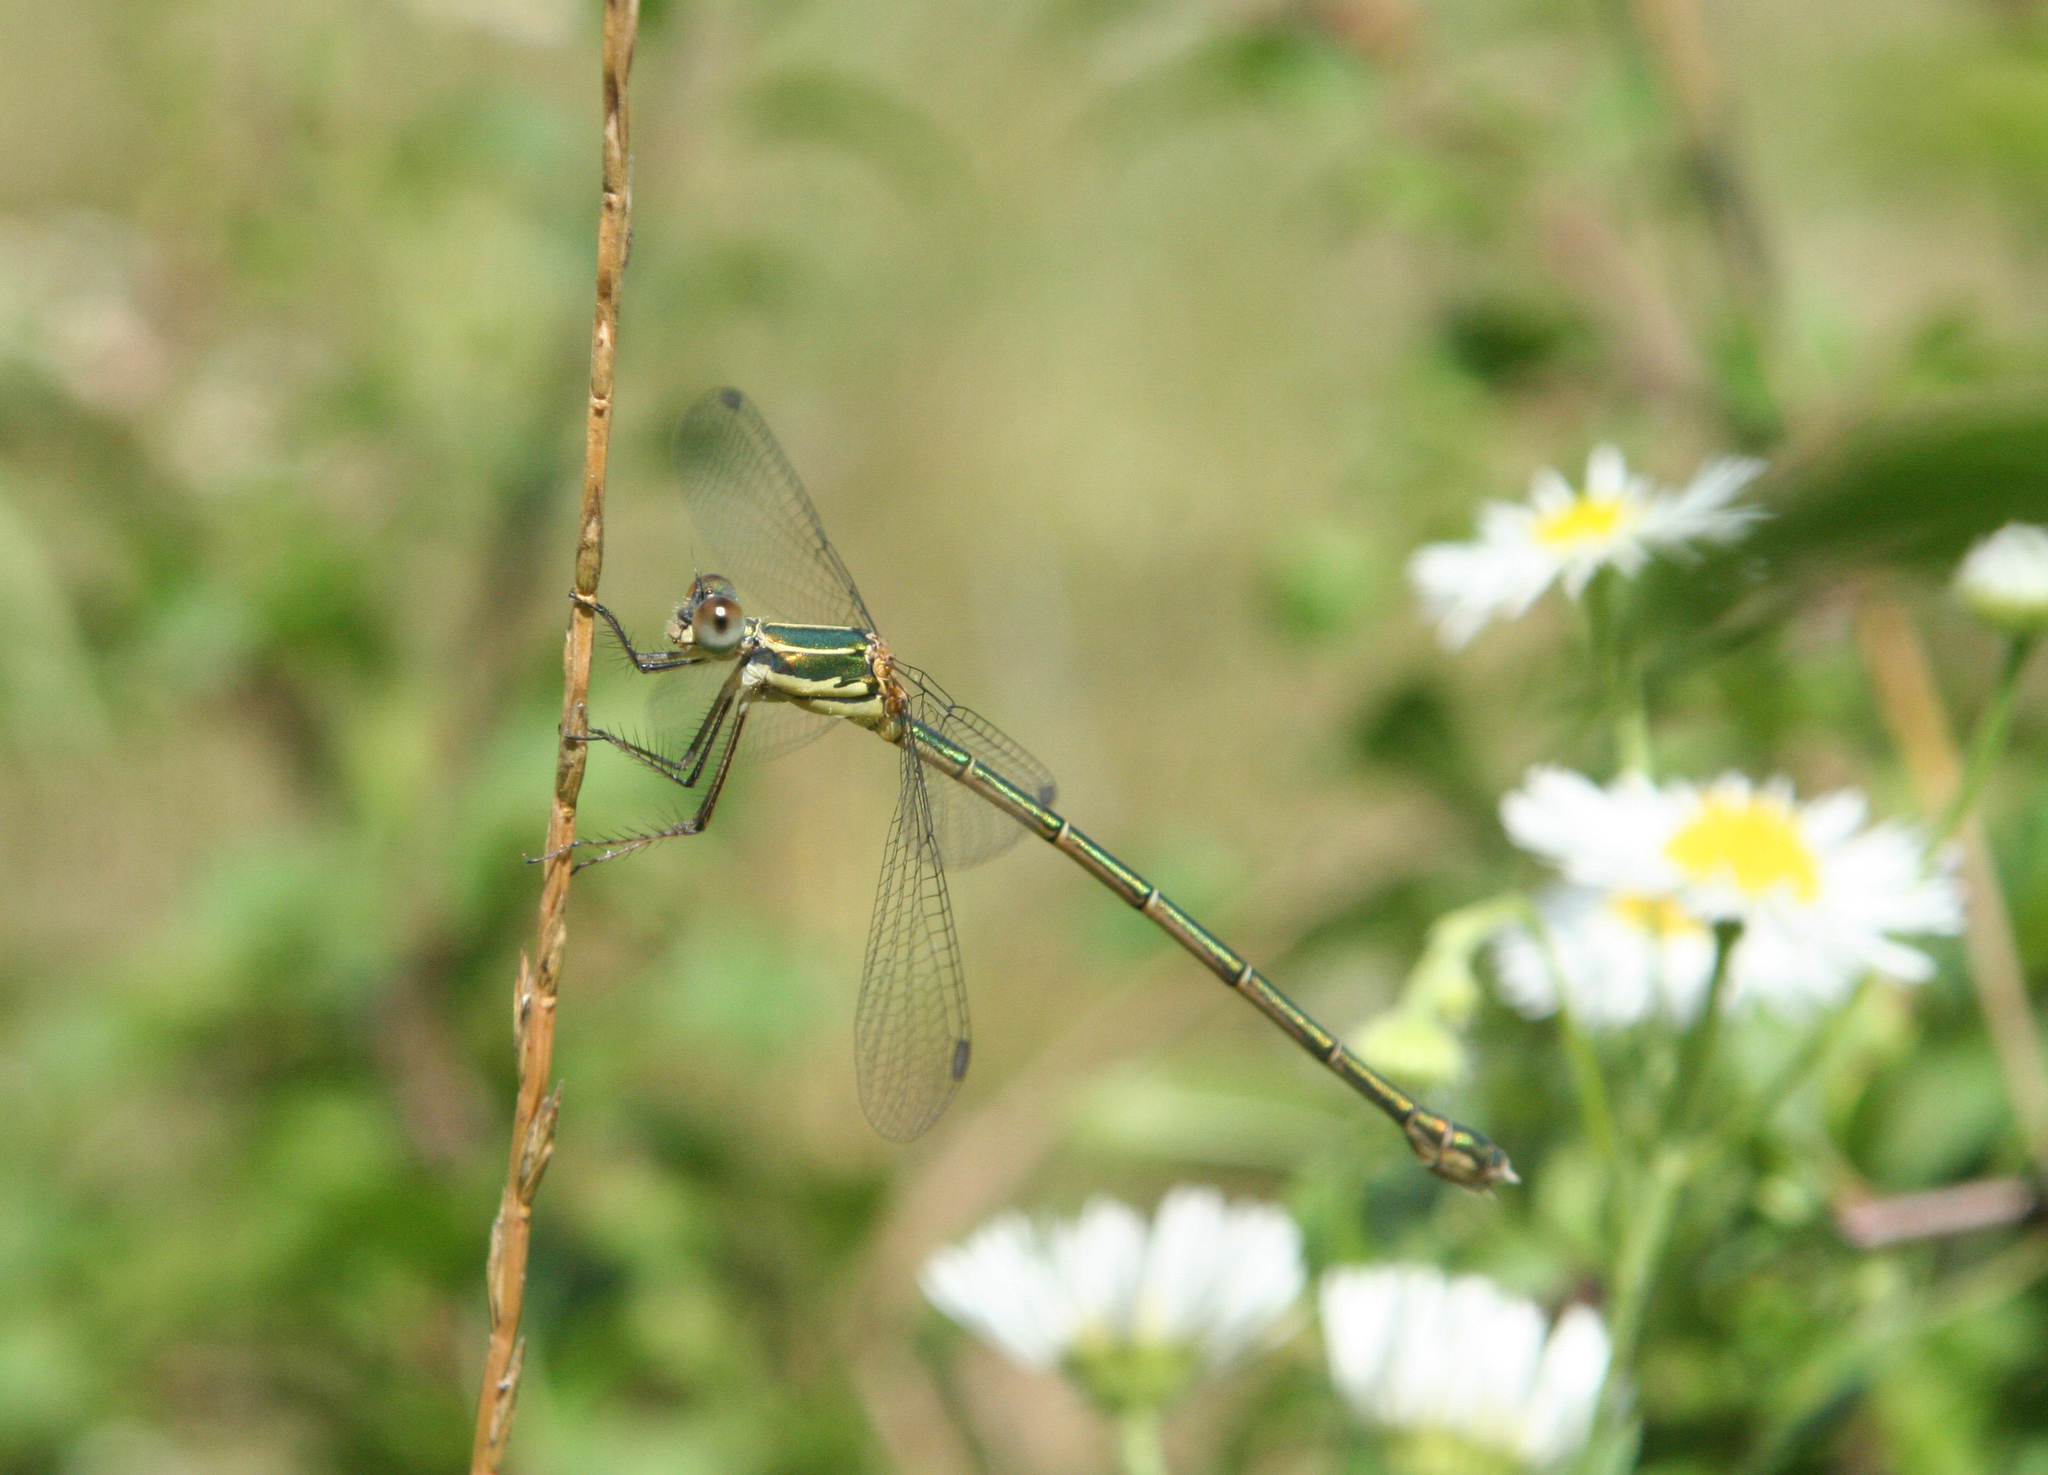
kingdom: Animalia
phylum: Arthropoda
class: Insecta
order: Odonata
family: Lestidae
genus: Chalcolestes
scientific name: Chalcolestes parvidens
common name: Eastern willow spreadwing
